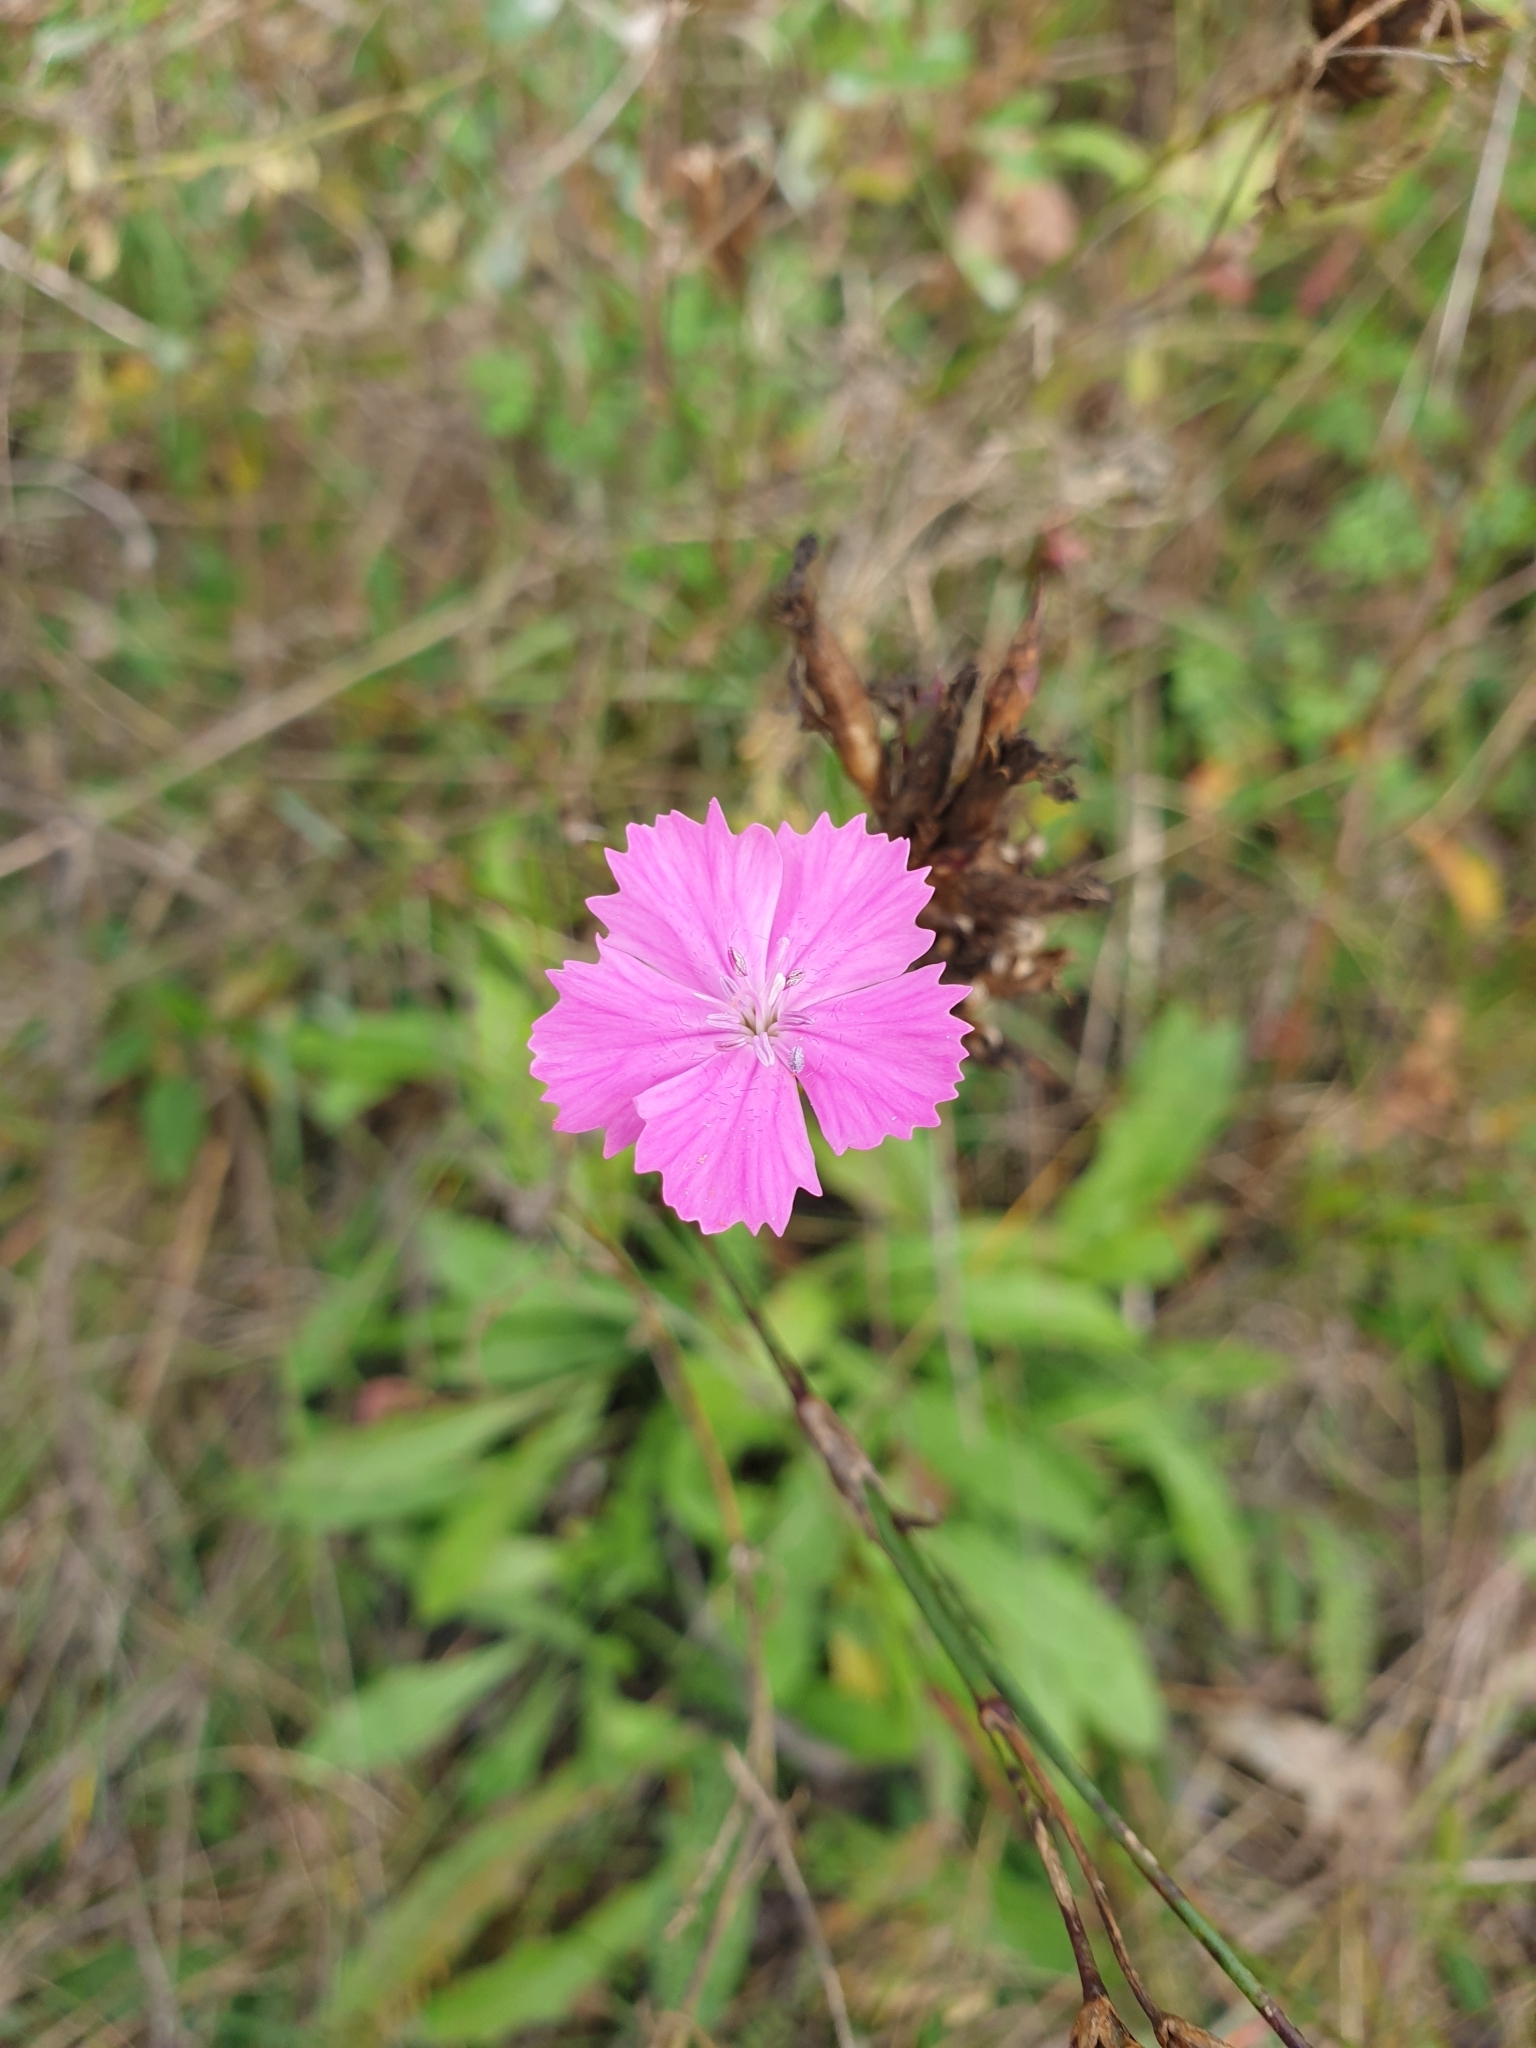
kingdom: Plantae
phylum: Tracheophyta
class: Magnoliopsida
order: Caryophyllales
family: Caryophyllaceae
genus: Dianthus
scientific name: Dianthus carthusianorum
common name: Carthusian pink
